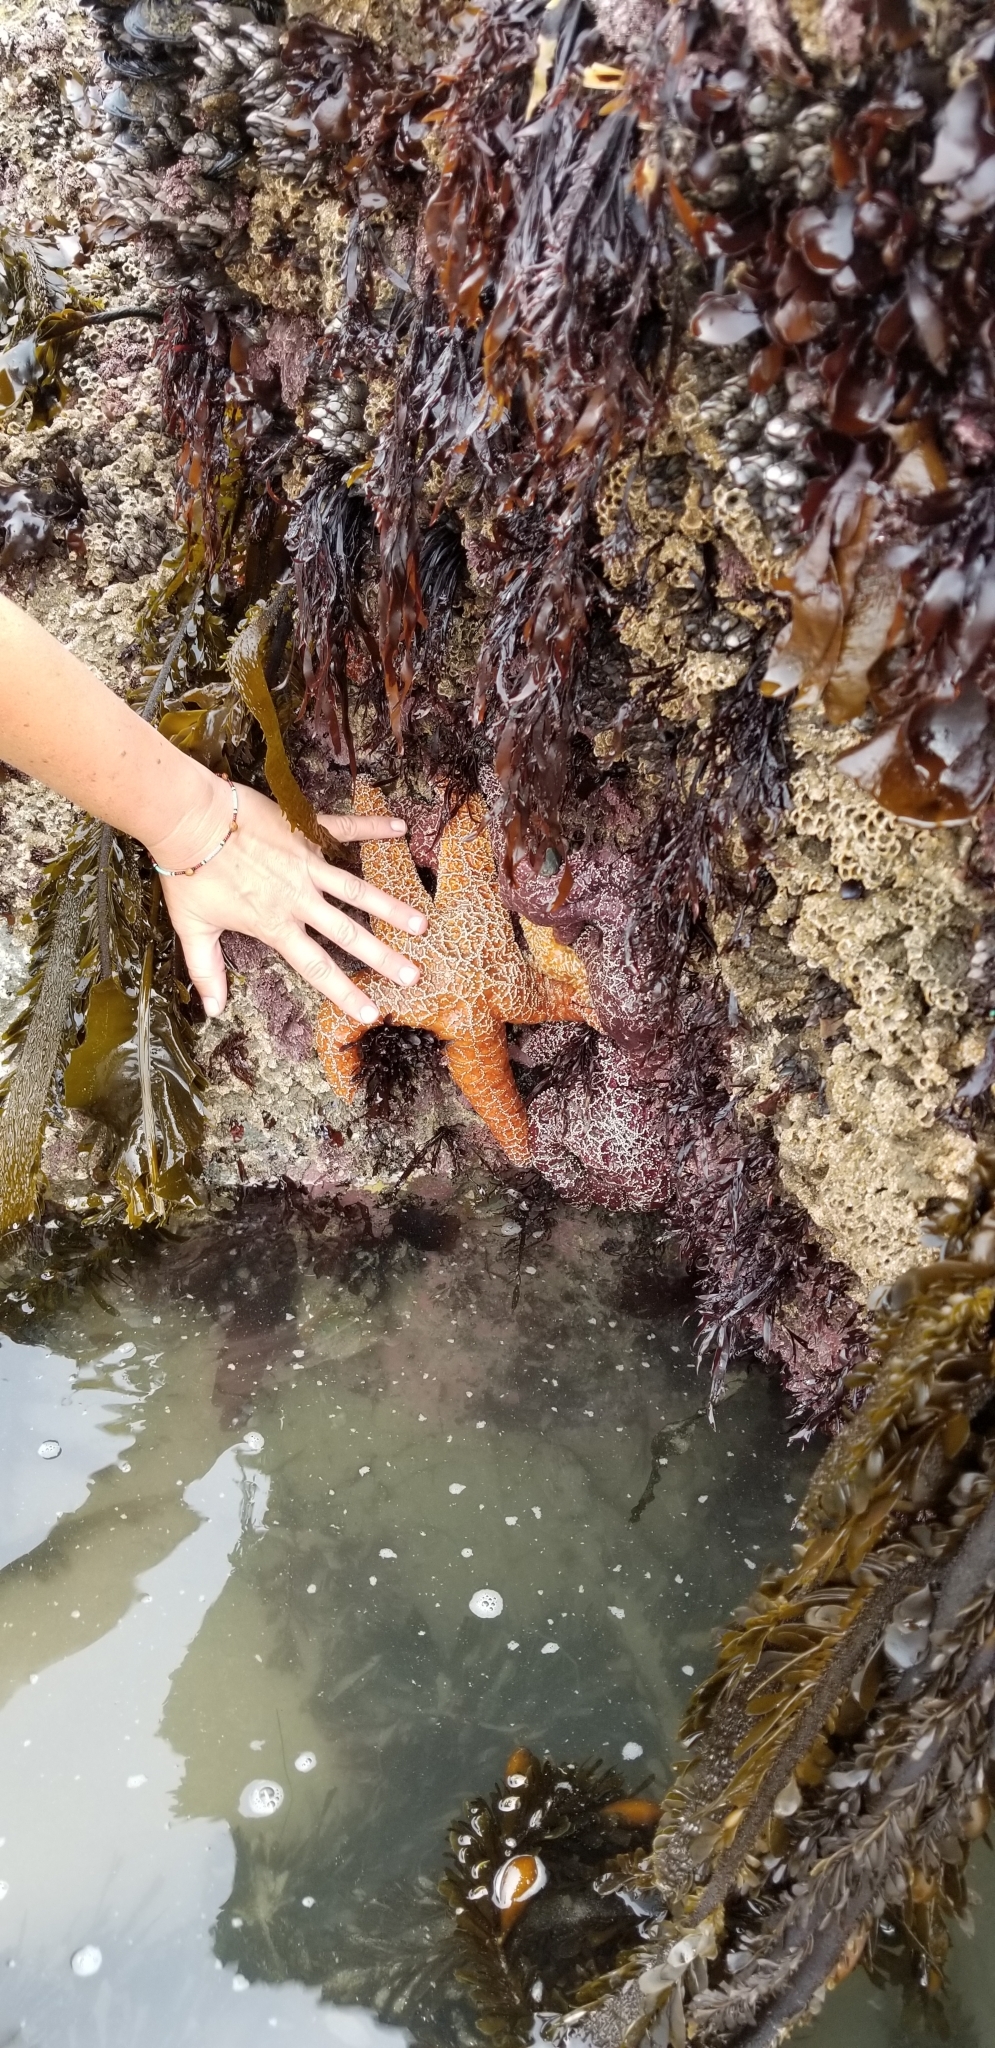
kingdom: Animalia
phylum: Echinodermata
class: Asteroidea
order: Forcipulatida
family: Asteriidae
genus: Pisaster
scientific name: Pisaster ochraceus
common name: Ochre stars
